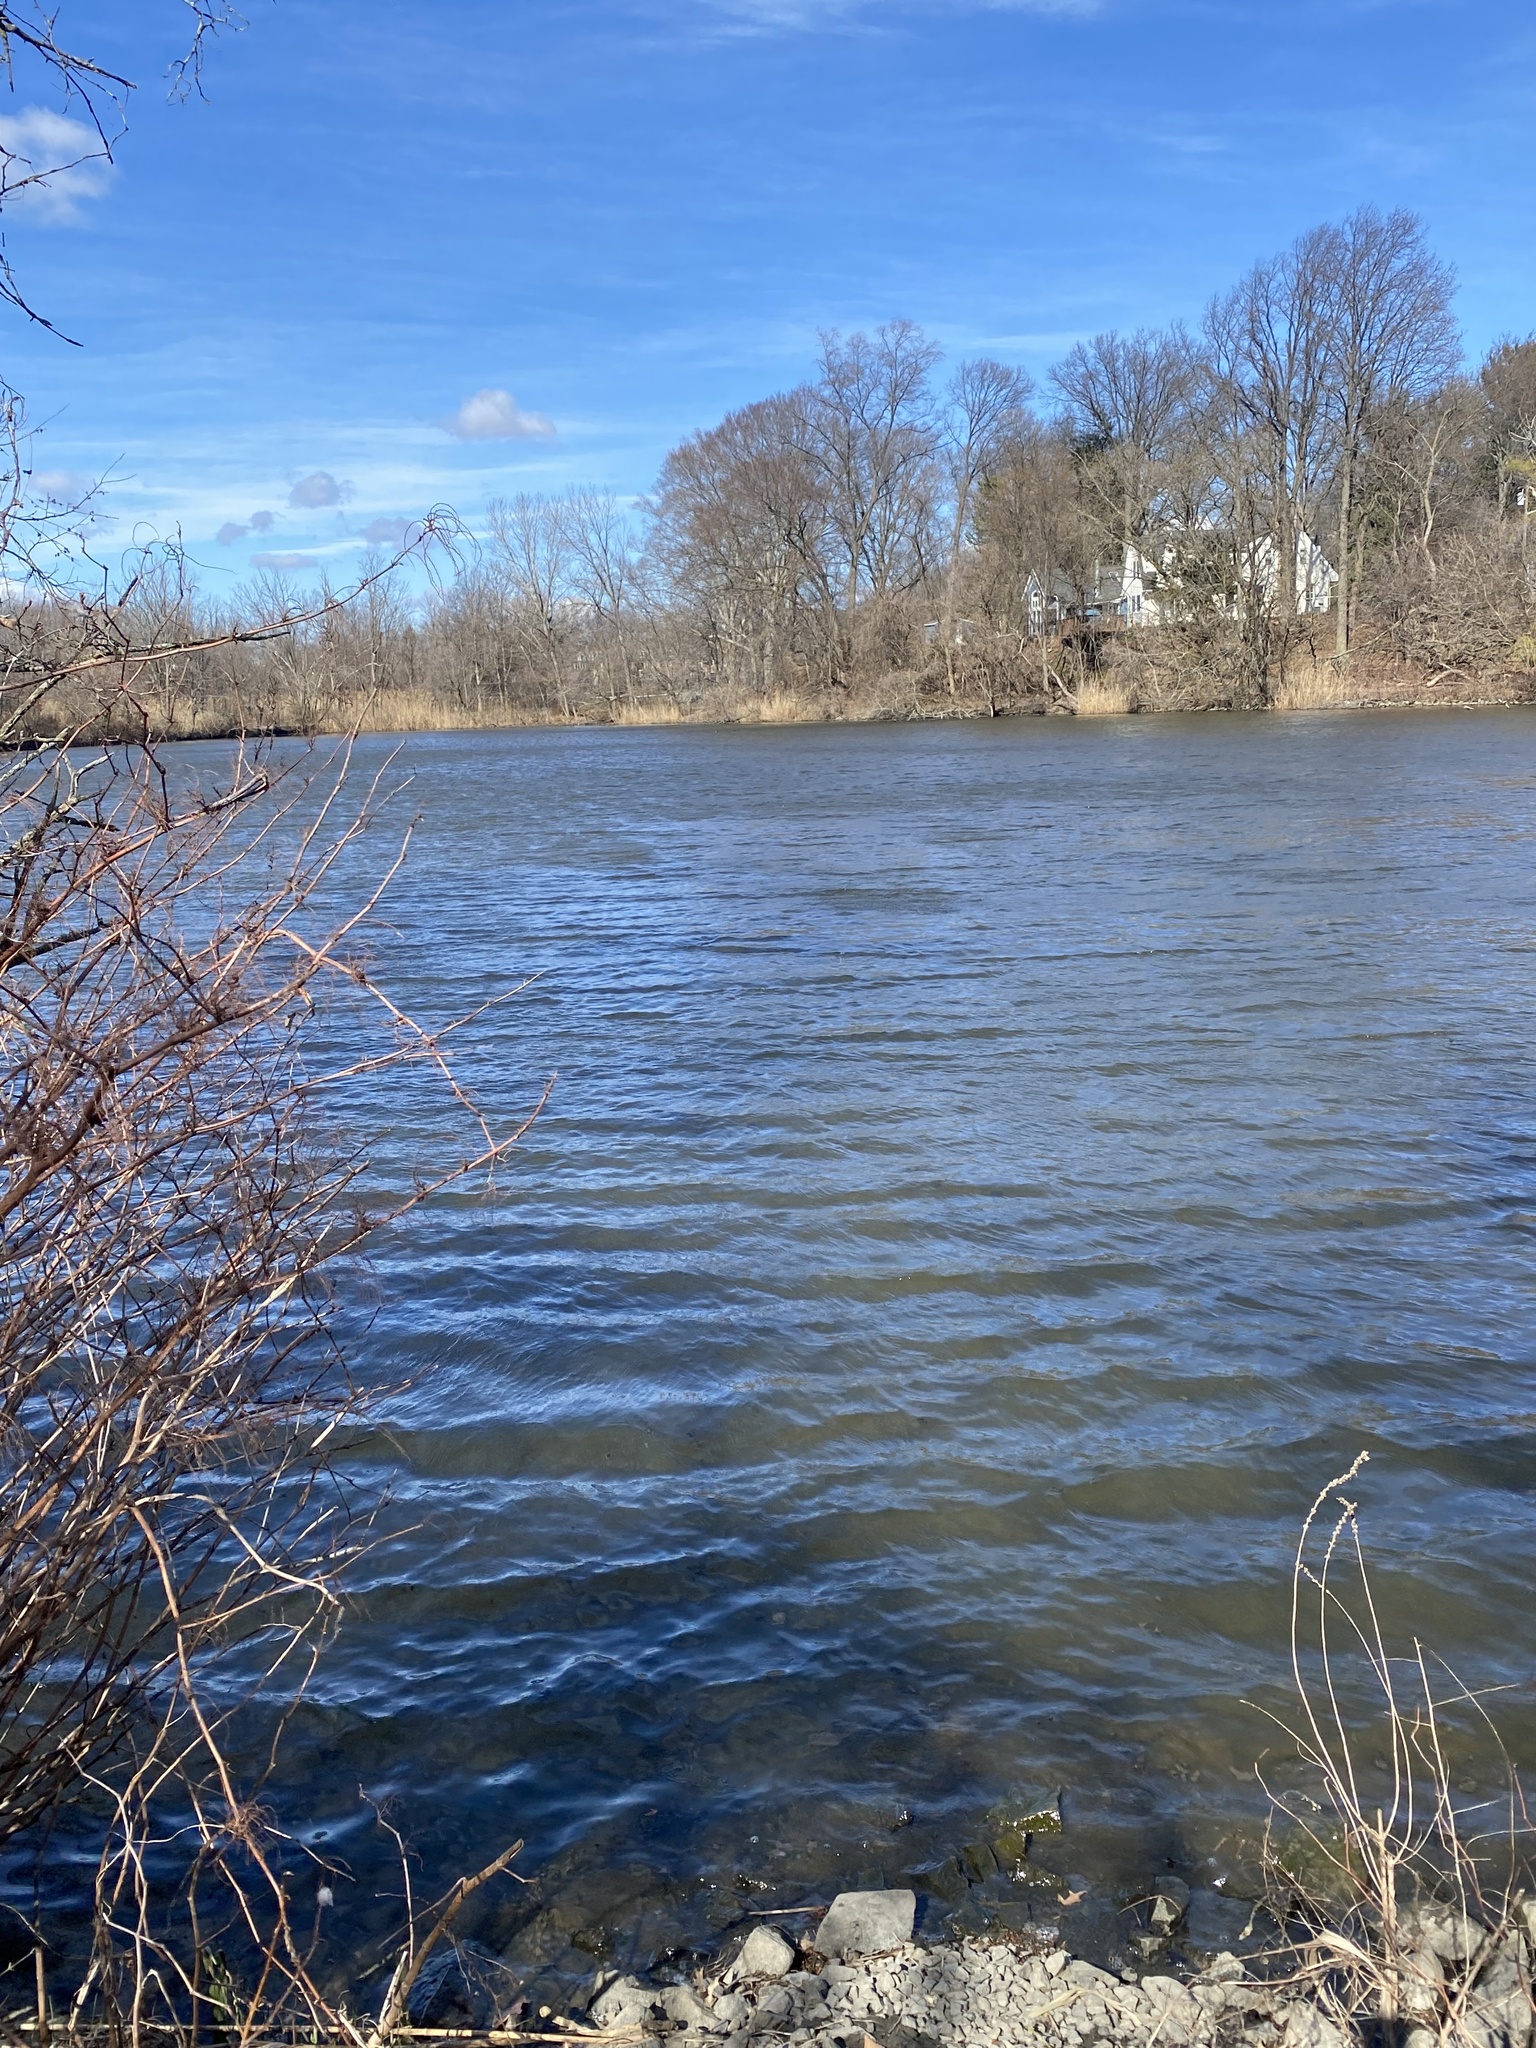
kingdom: Animalia
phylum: Chordata
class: Aves
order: Anseriformes
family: Anatidae
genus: Lophodytes
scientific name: Lophodytes cucullatus
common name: Hooded merganser
